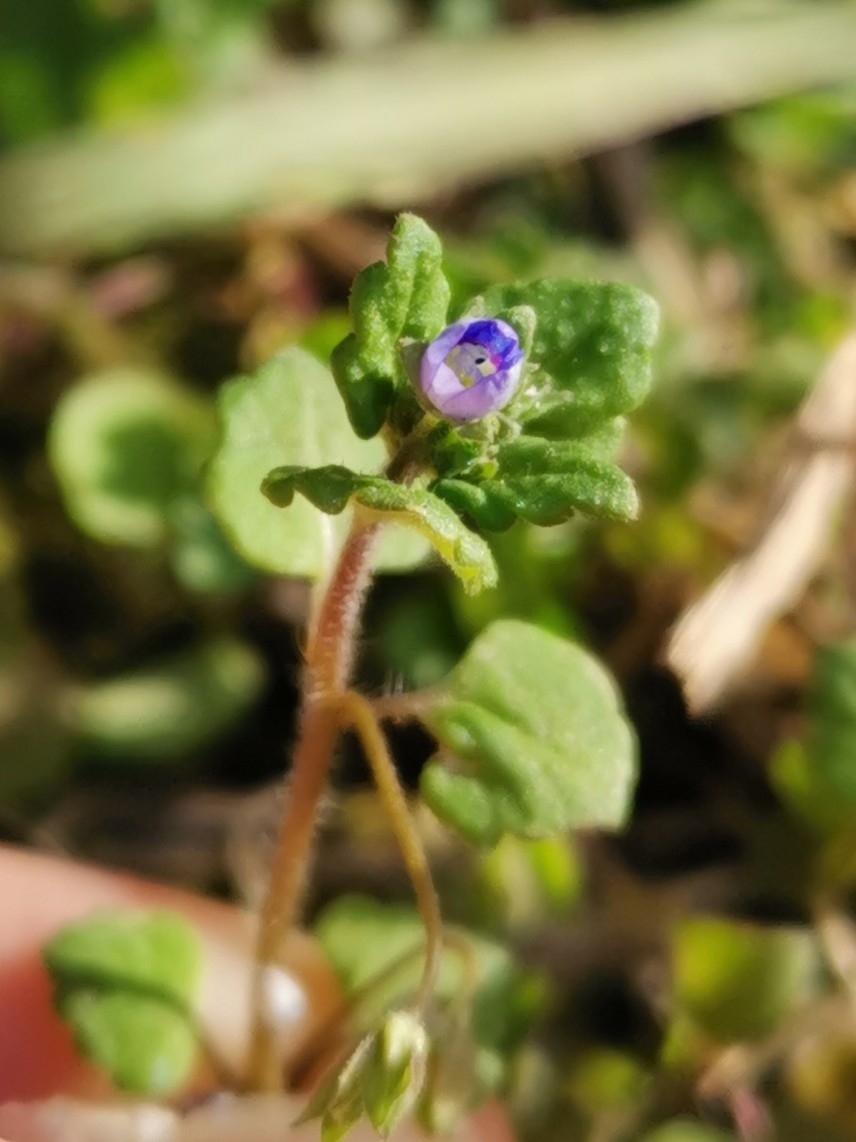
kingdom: Plantae
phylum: Tracheophyta
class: Magnoliopsida
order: Lamiales
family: Plantaginaceae
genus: Veronica
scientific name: Veronica persica
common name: Common field-speedwell
